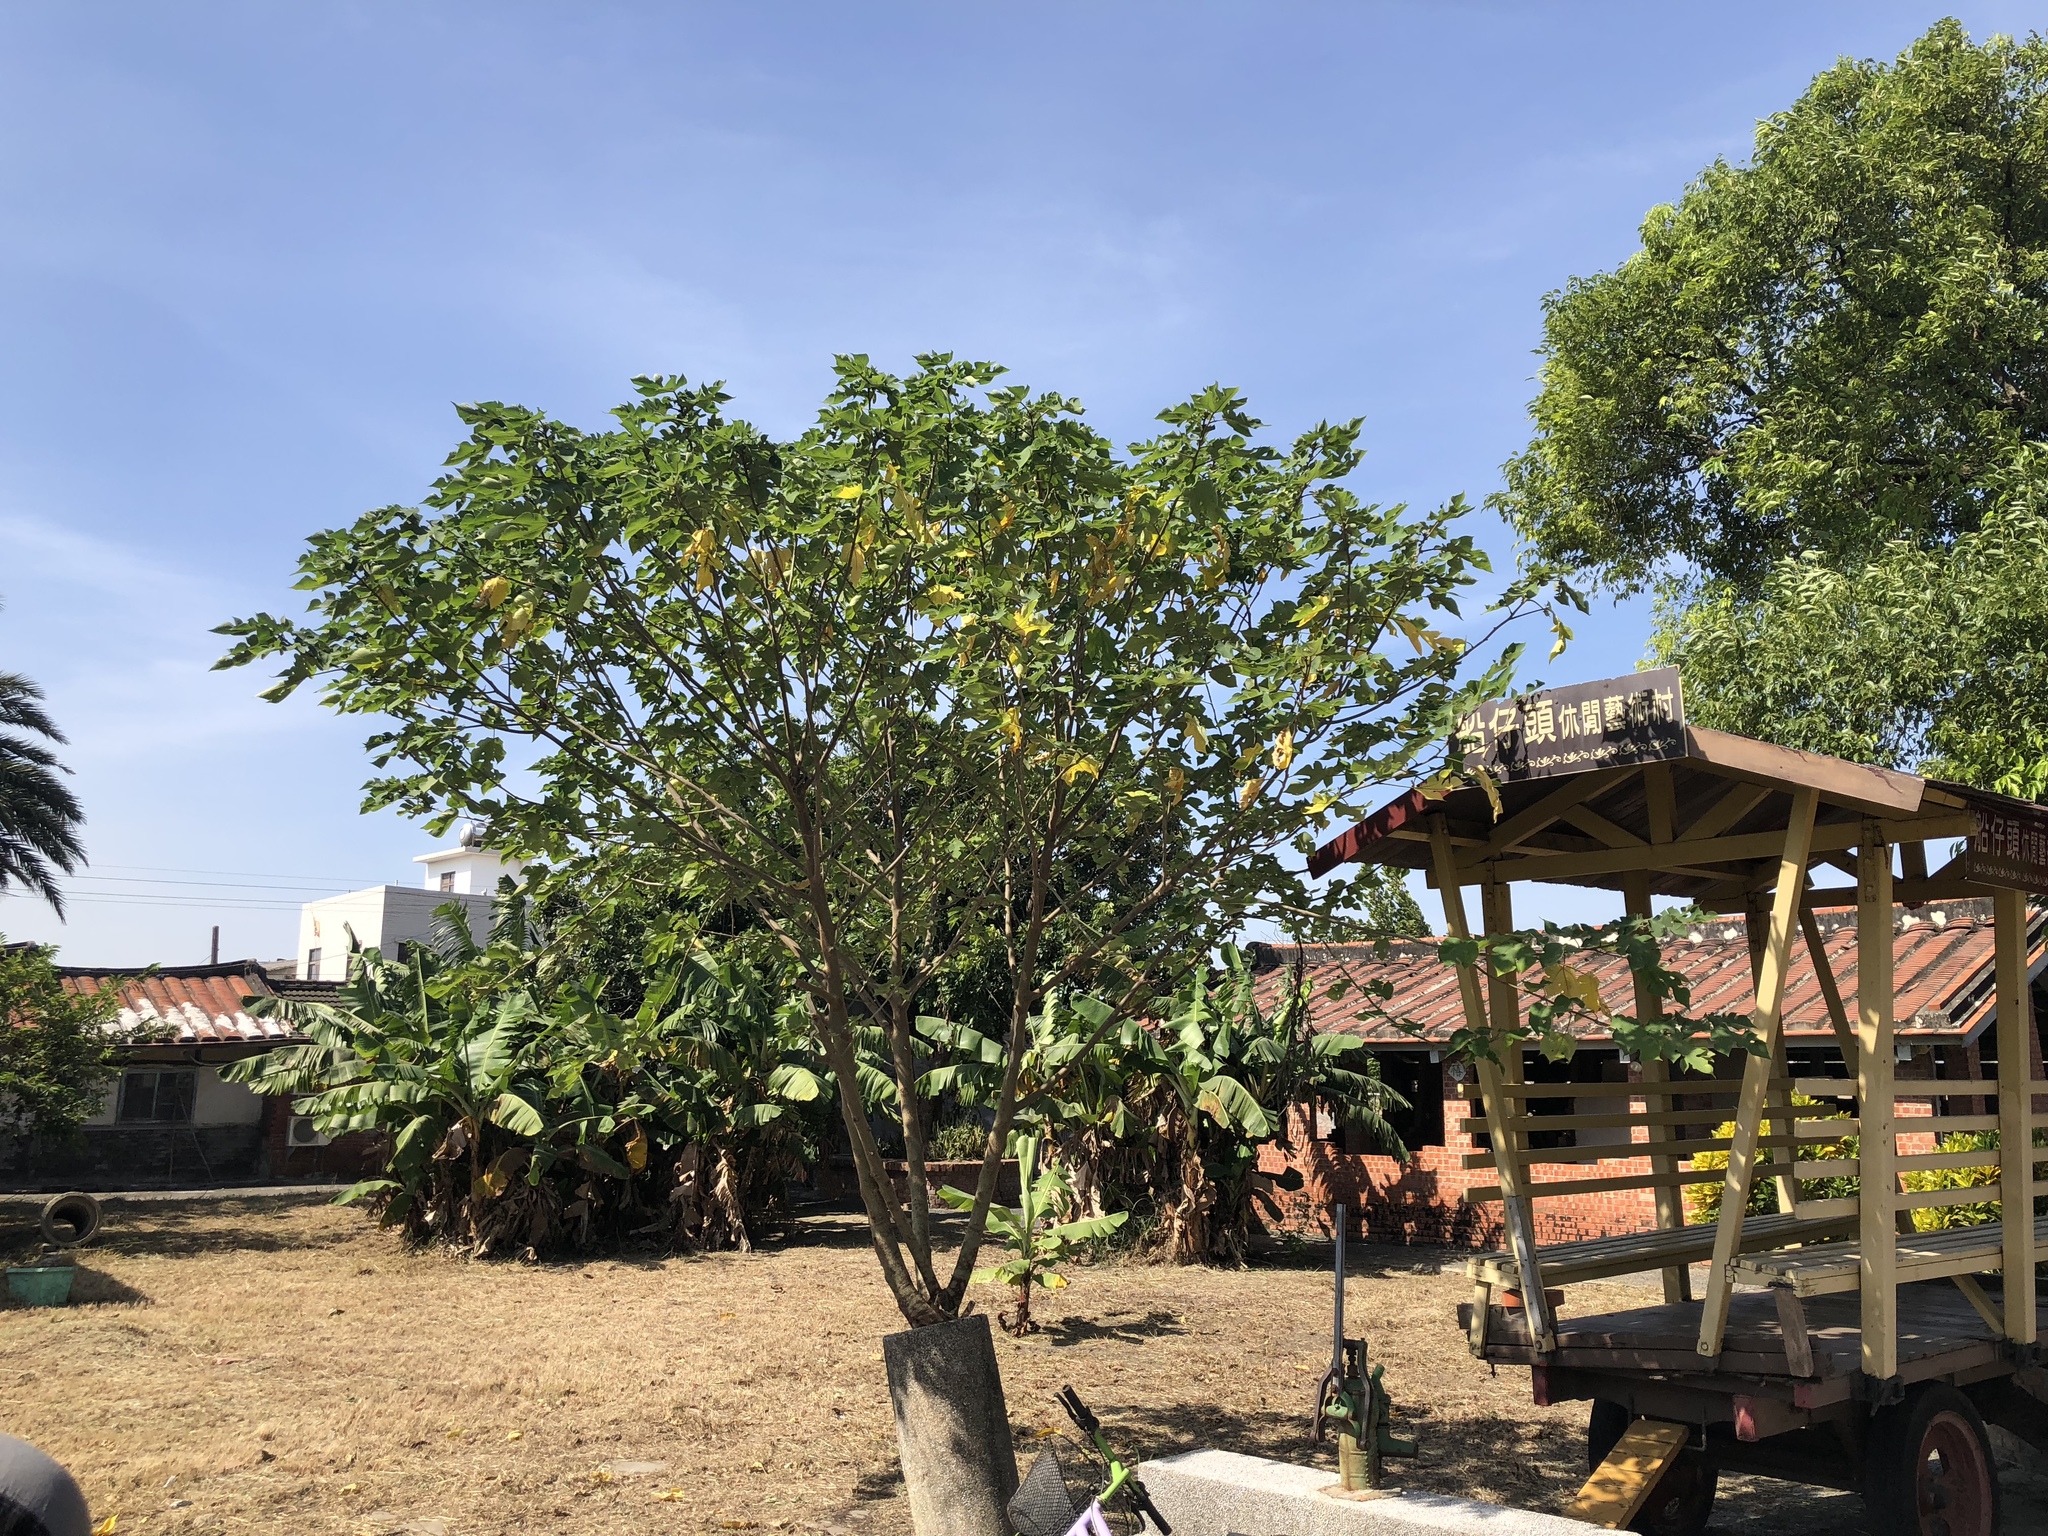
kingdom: Plantae
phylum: Tracheophyta
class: Magnoliopsida
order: Rosales
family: Moraceae
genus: Broussonetia
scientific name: Broussonetia papyrifera
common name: Paper mulberry
